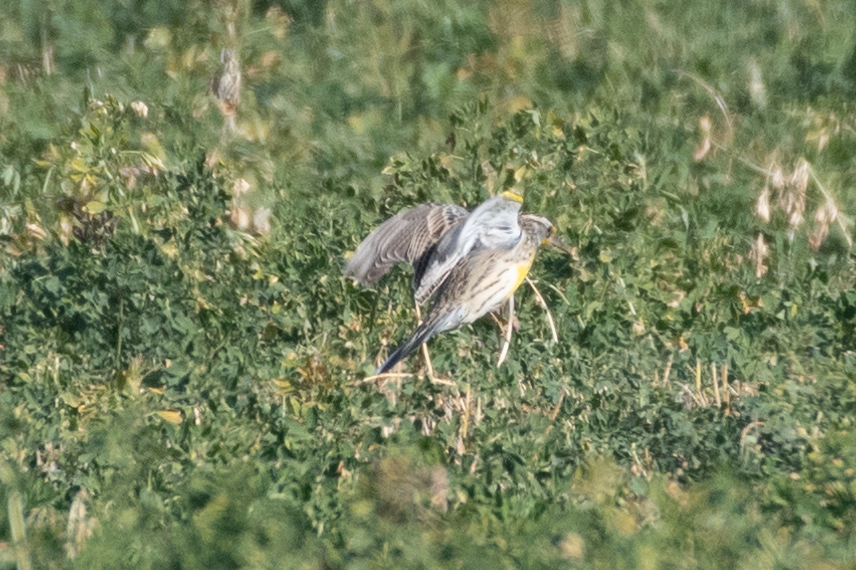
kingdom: Animalia
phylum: Chordata
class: Aves
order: Passeriformes
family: Icteridae
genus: Sturnella
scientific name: Sturnella neglecta
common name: Western meadowlark
